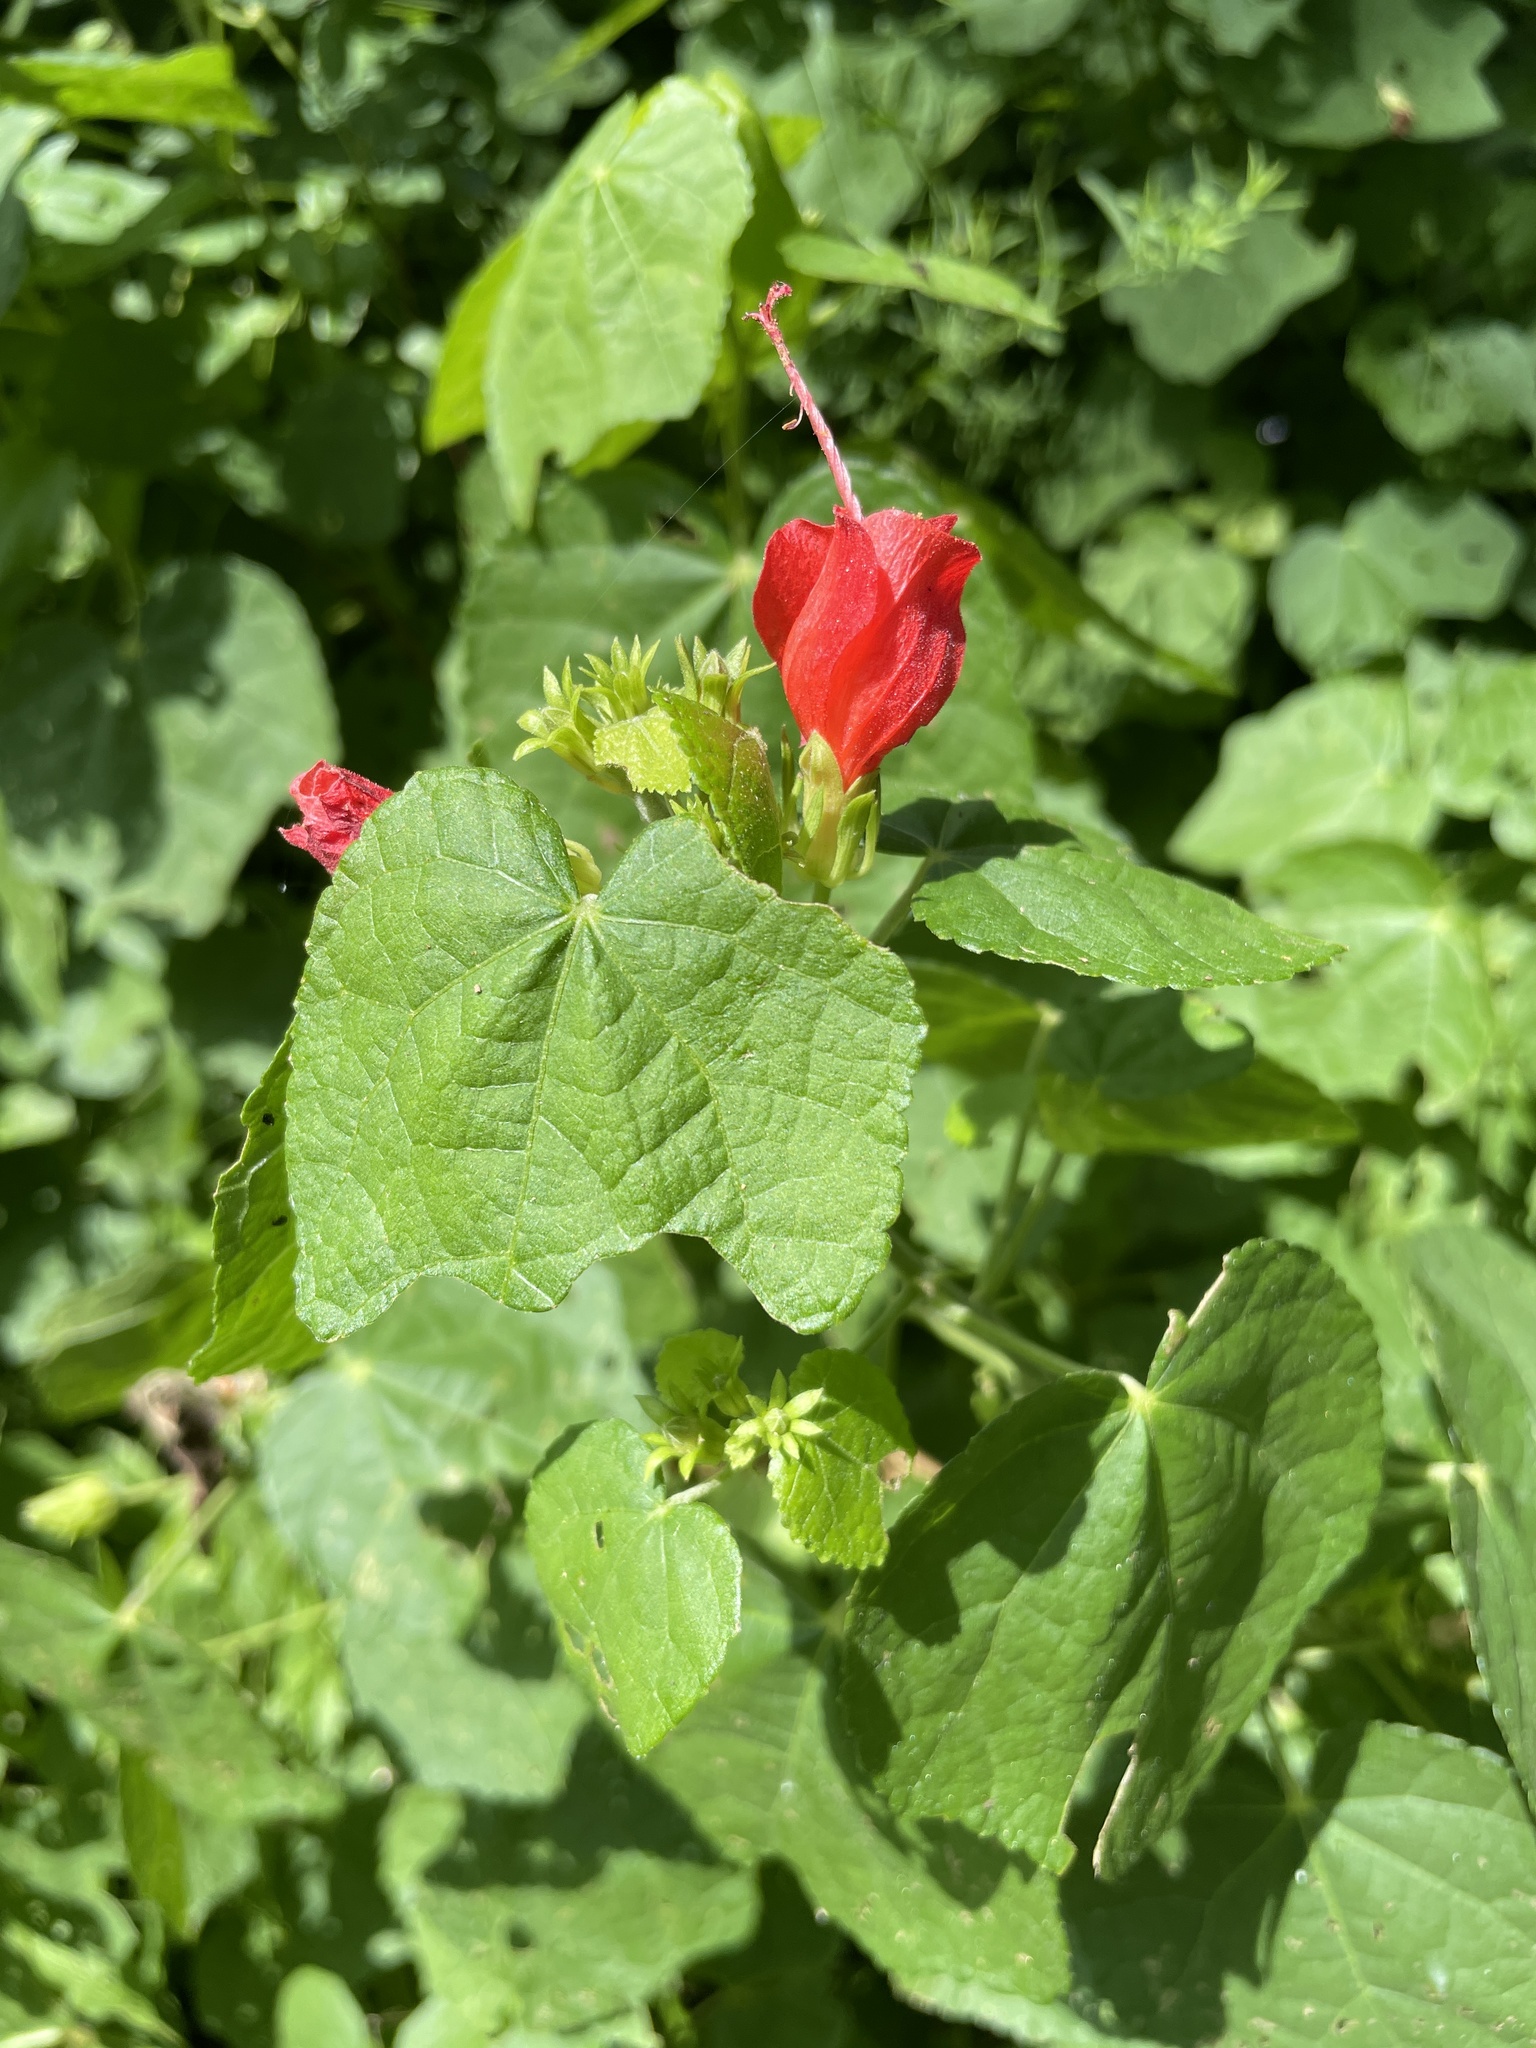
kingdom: Plantae
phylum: Tracheophyta
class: Magnoliopsida
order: Malvales
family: Malvaceae
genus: Malvaviscus
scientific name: Malvaviscus arboreus
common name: Wax mallow
